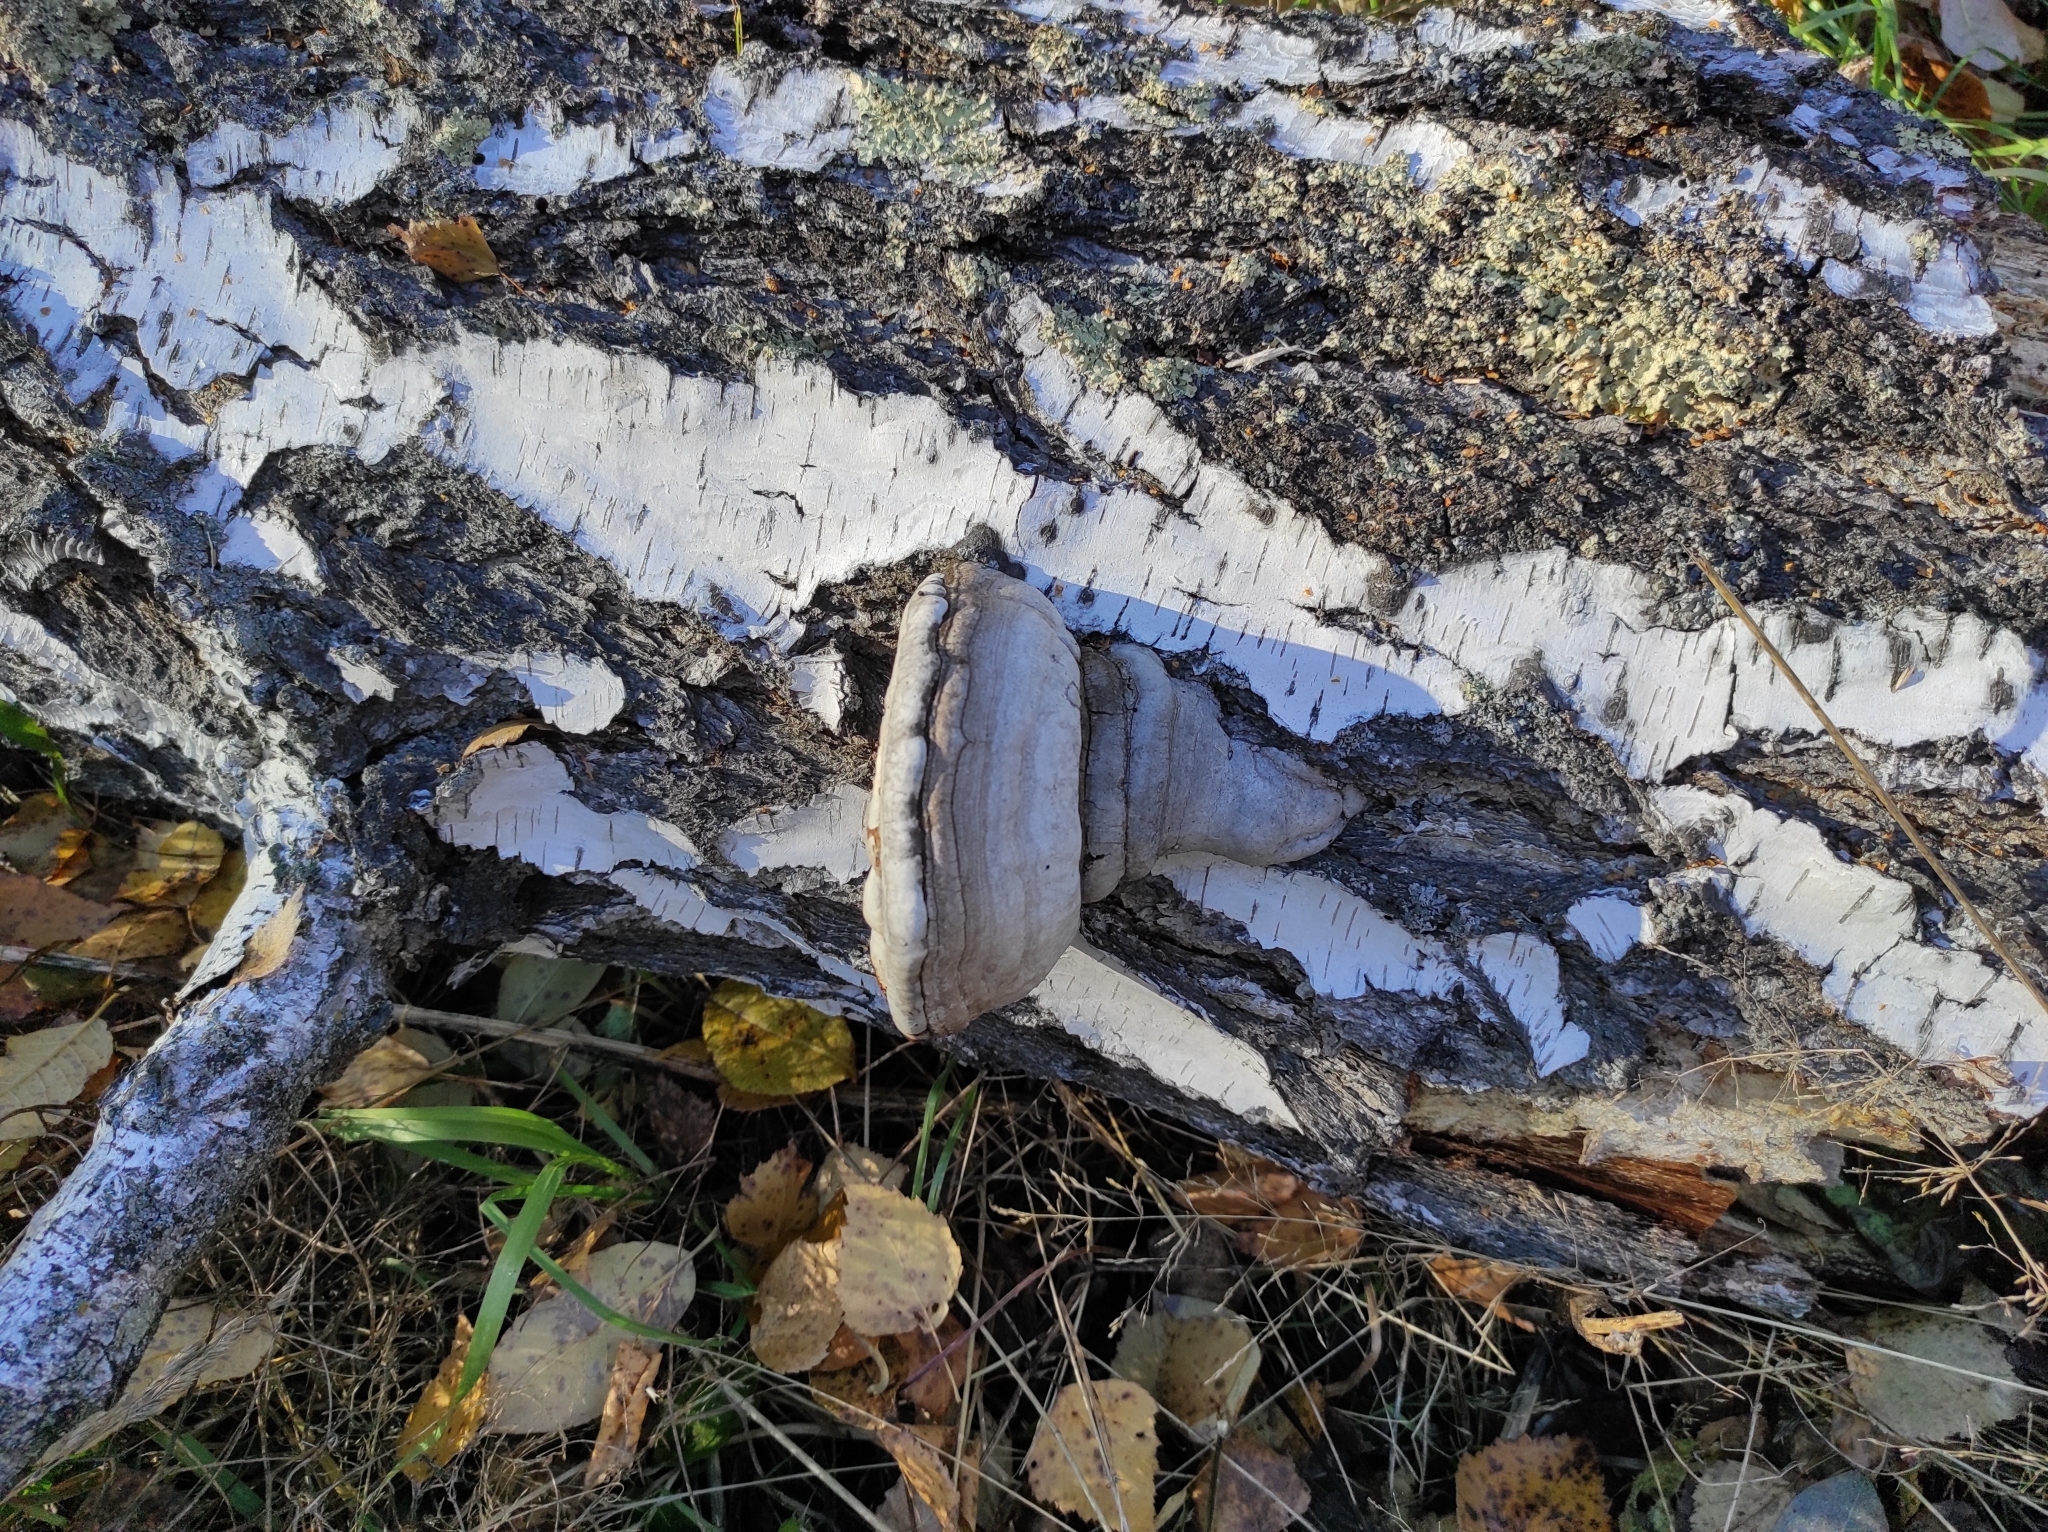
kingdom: Fungi
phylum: Basidiomycota
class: Agaricomycetes
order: Polyporales
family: Polyporaceae
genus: Fomes
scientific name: Fomes fomentarius
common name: Hoof fungus
